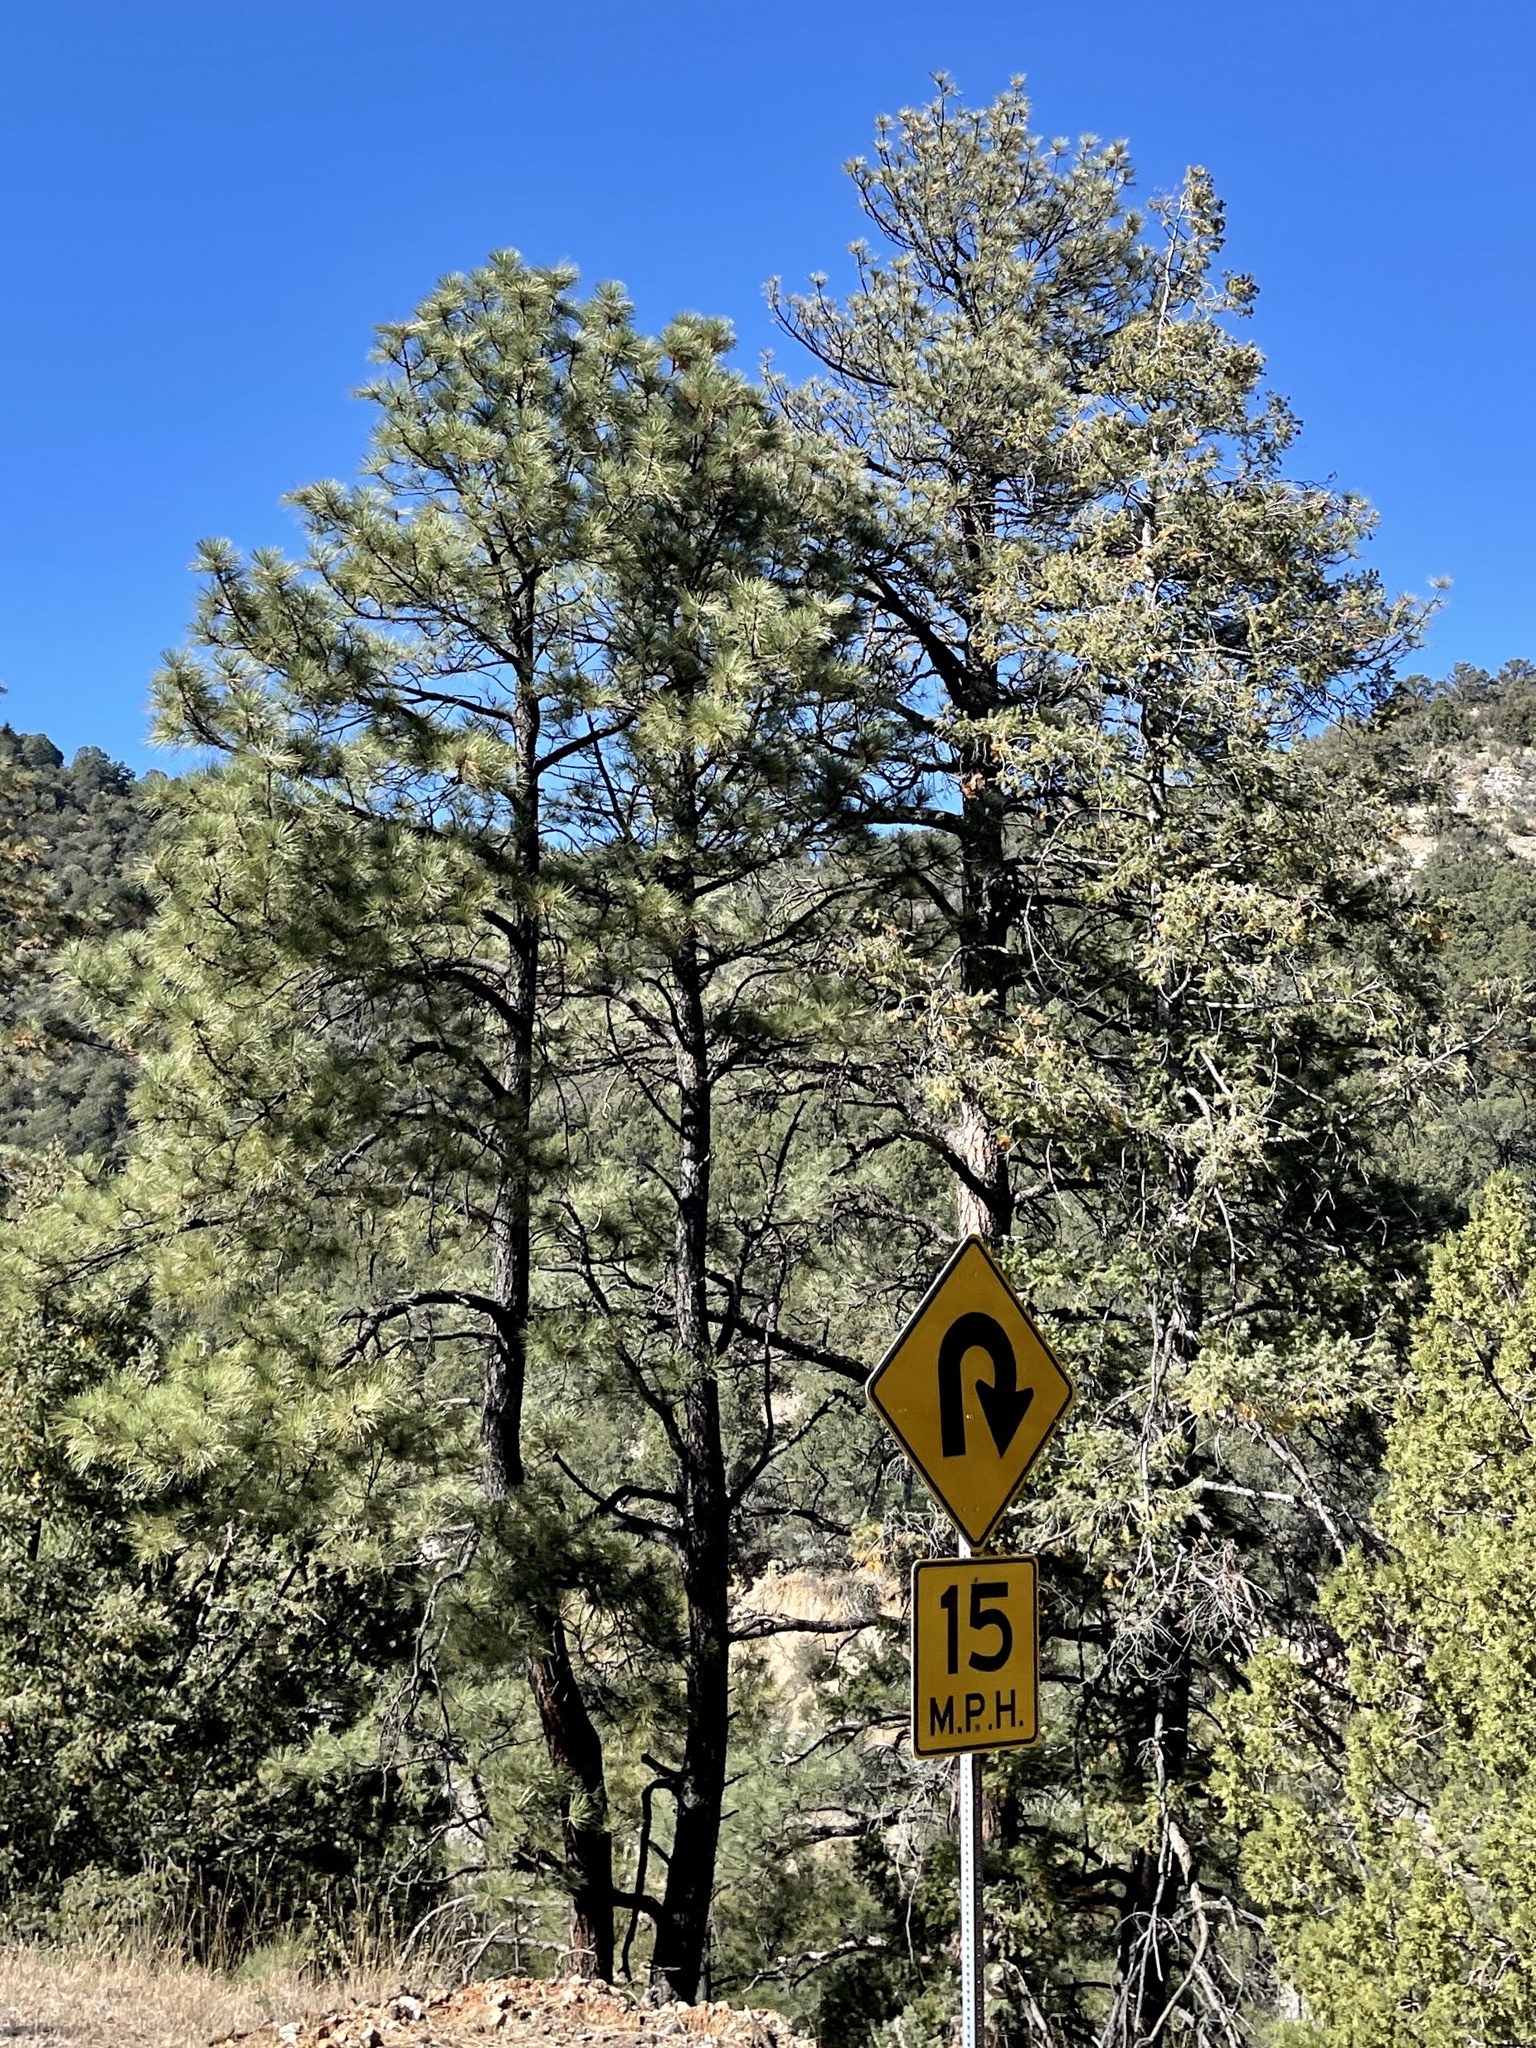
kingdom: Plantae
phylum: Tracheophyta
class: Pinopsida
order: Pinales
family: Pinaceae
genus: Pinus
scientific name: Pinus ponderosa
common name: Western yellow-pine
